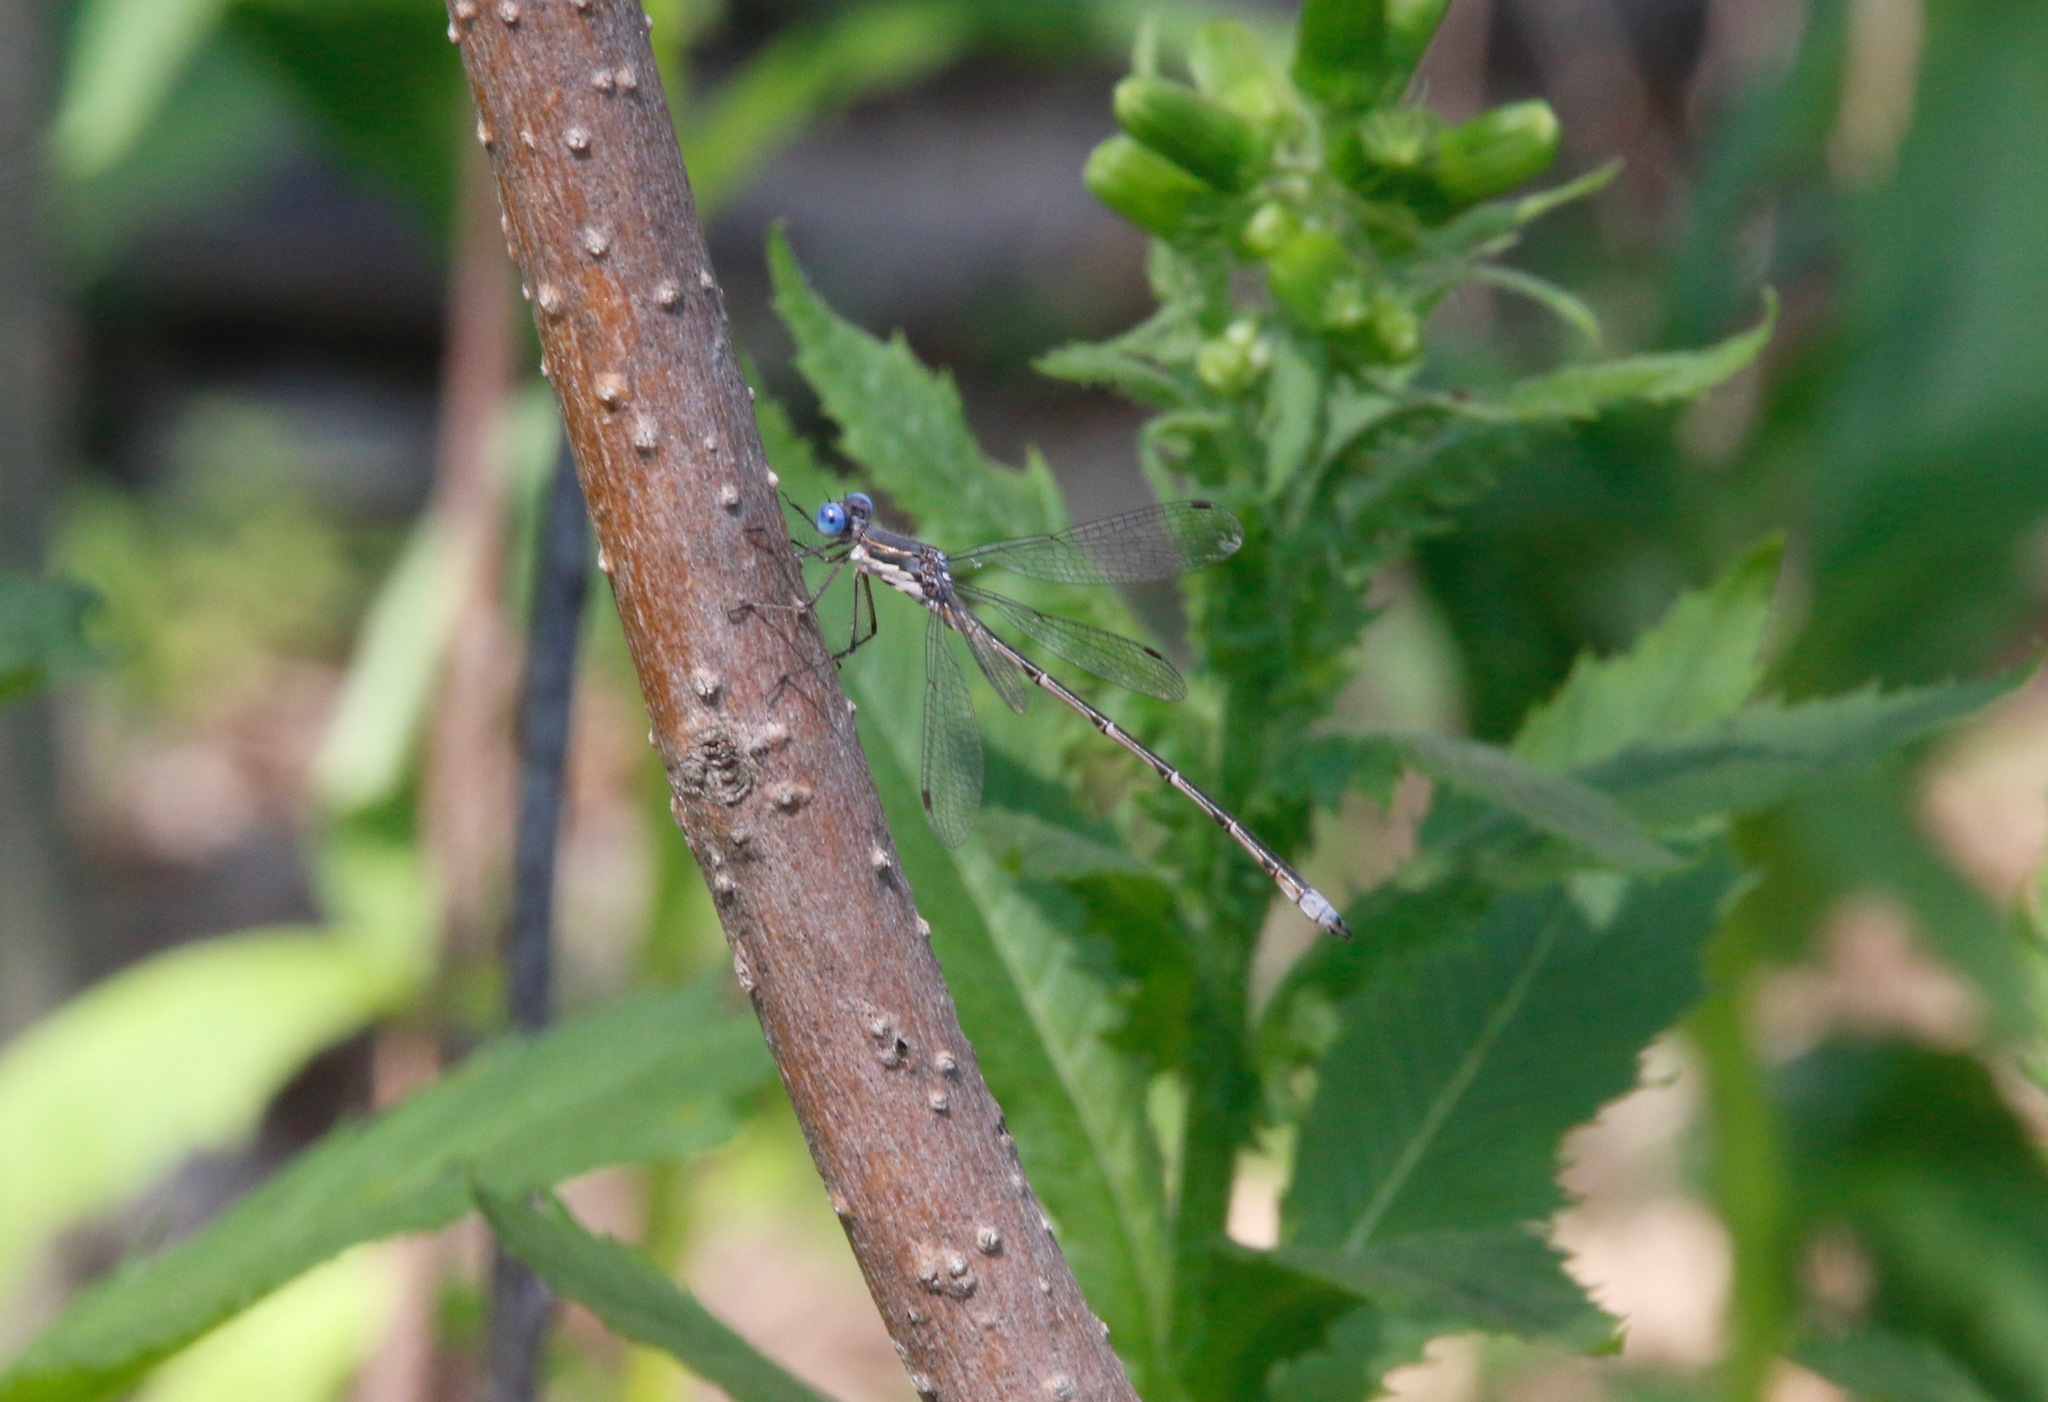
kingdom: Animalia
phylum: Arthropoda
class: Insecta
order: Odonata
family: Lestidae
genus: Lestes
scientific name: Lestes congener
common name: Spotted spreadwing
